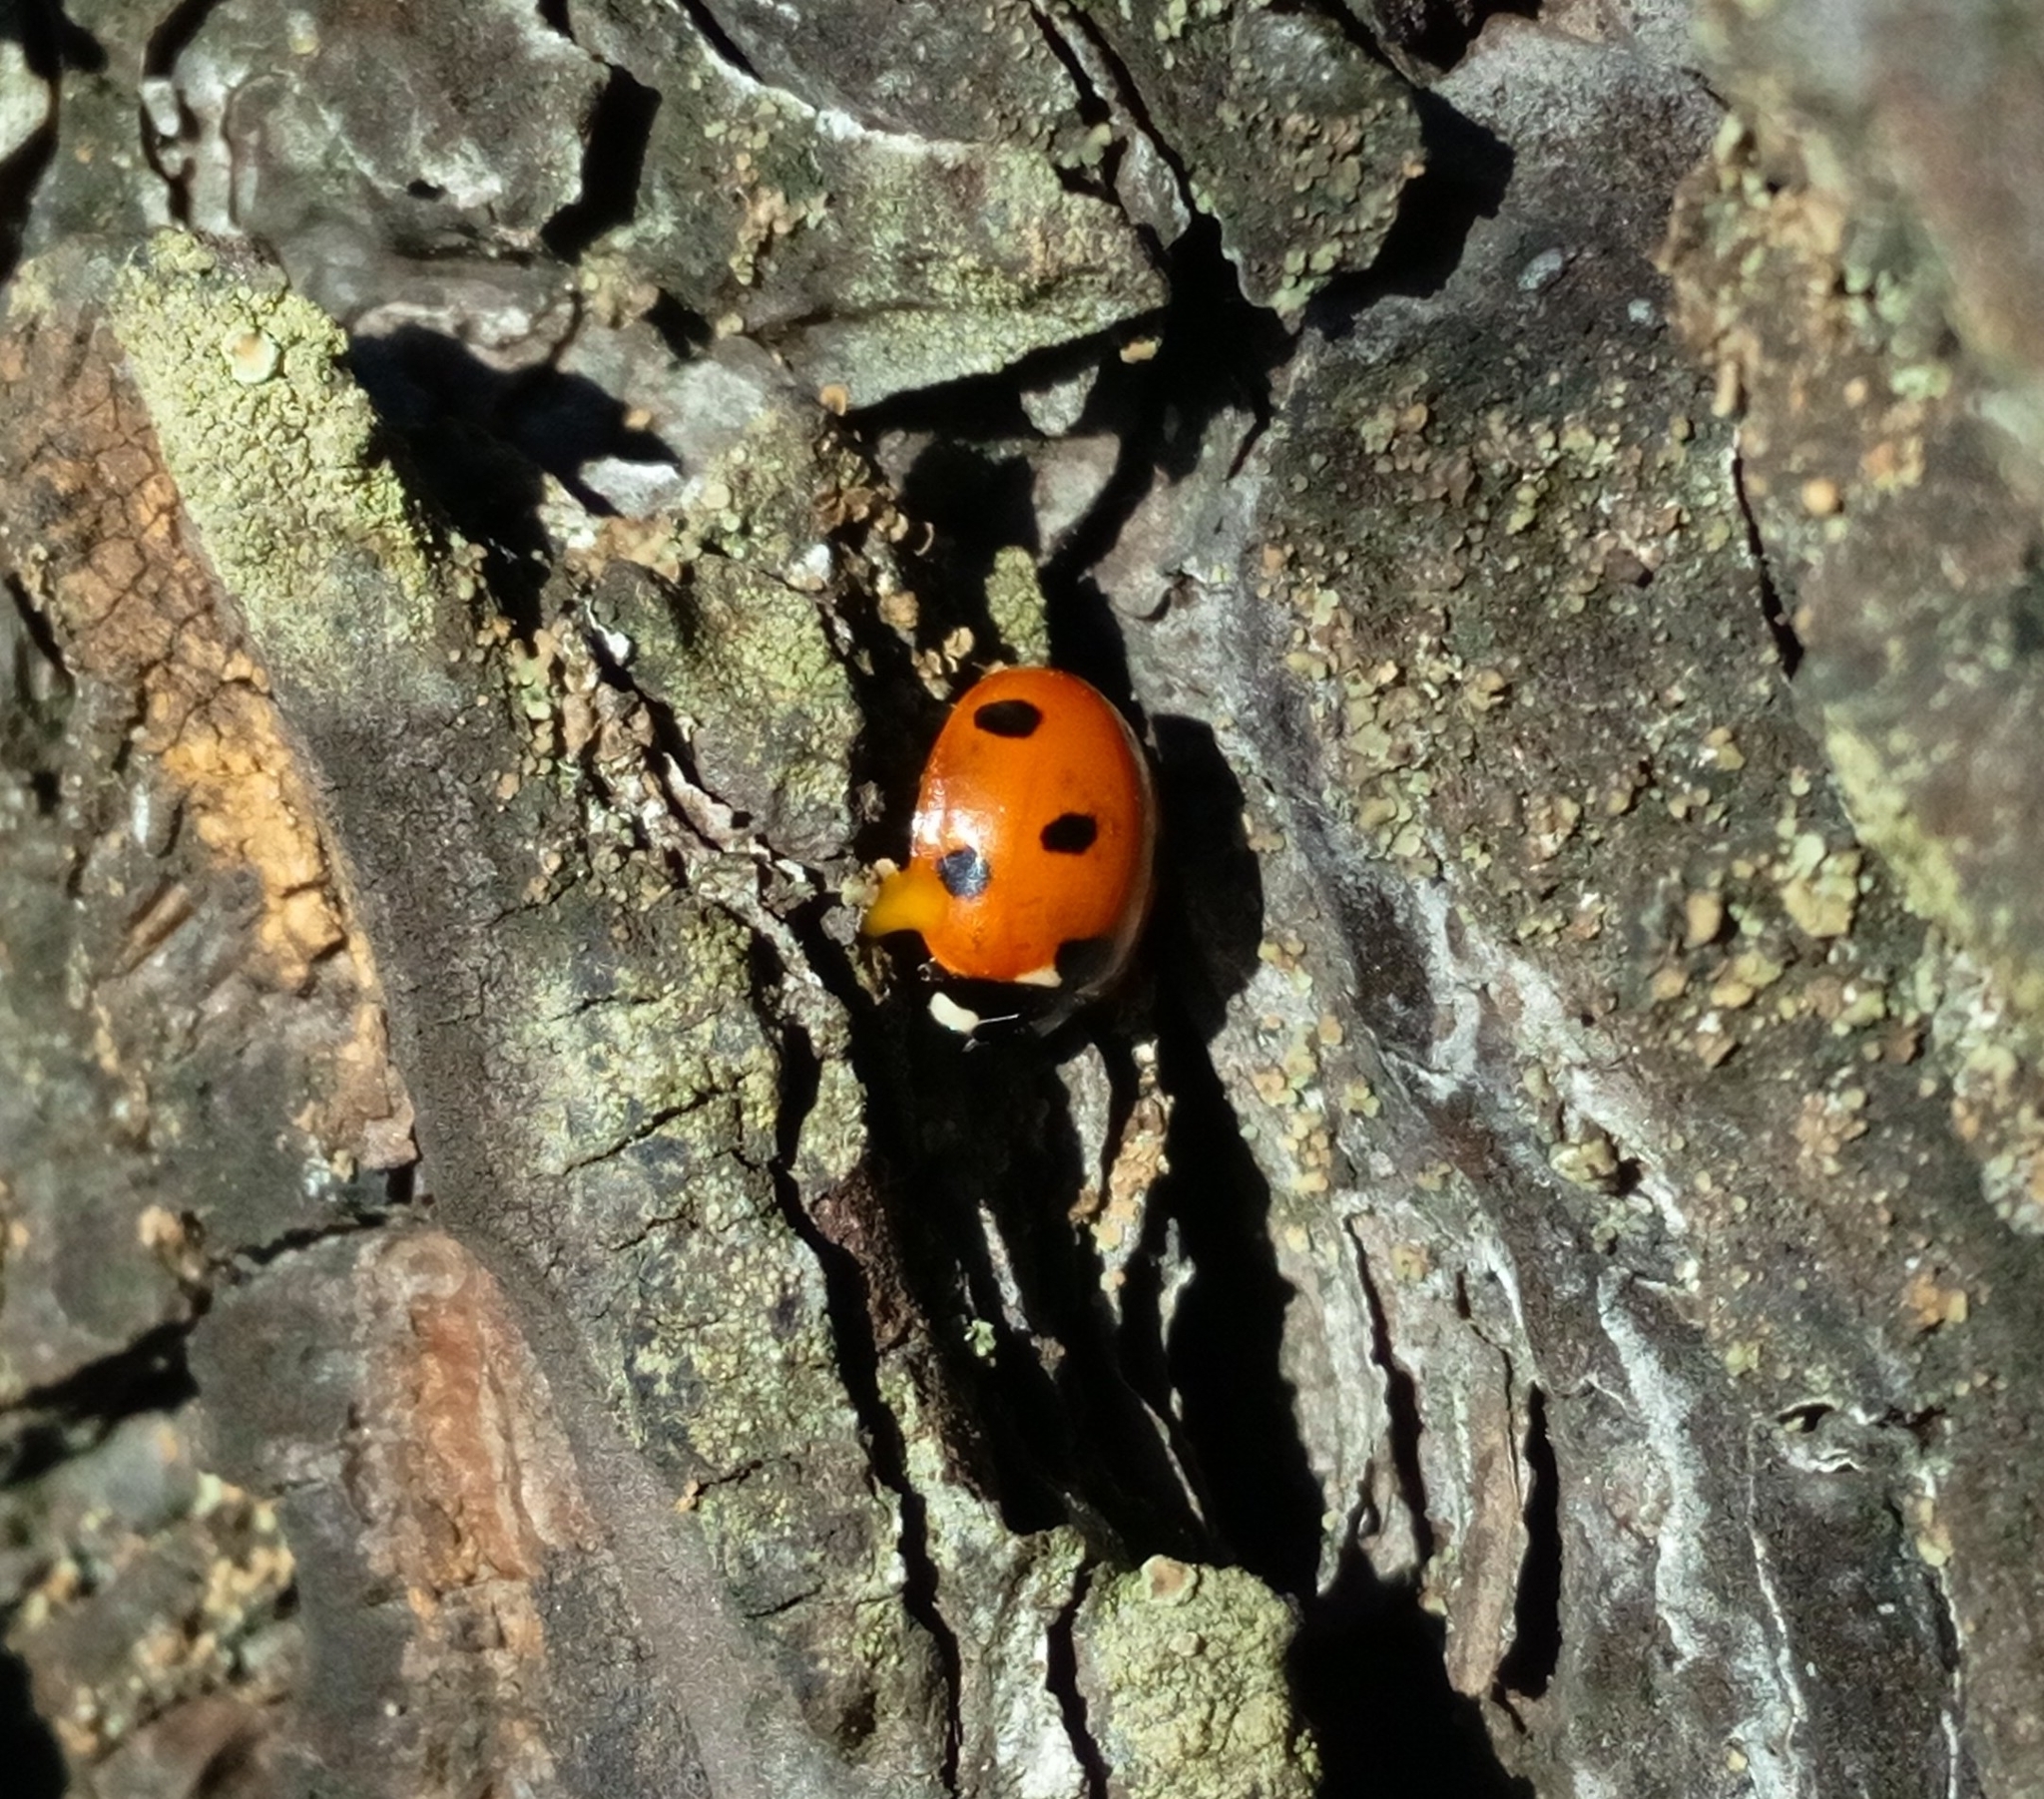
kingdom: Animalia
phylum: Arthropoda
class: Insecta
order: Coleoptera
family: Coccinellidae
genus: Coccinella
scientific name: Coccinella septempunctata
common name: Sevenspotted lady beetle
